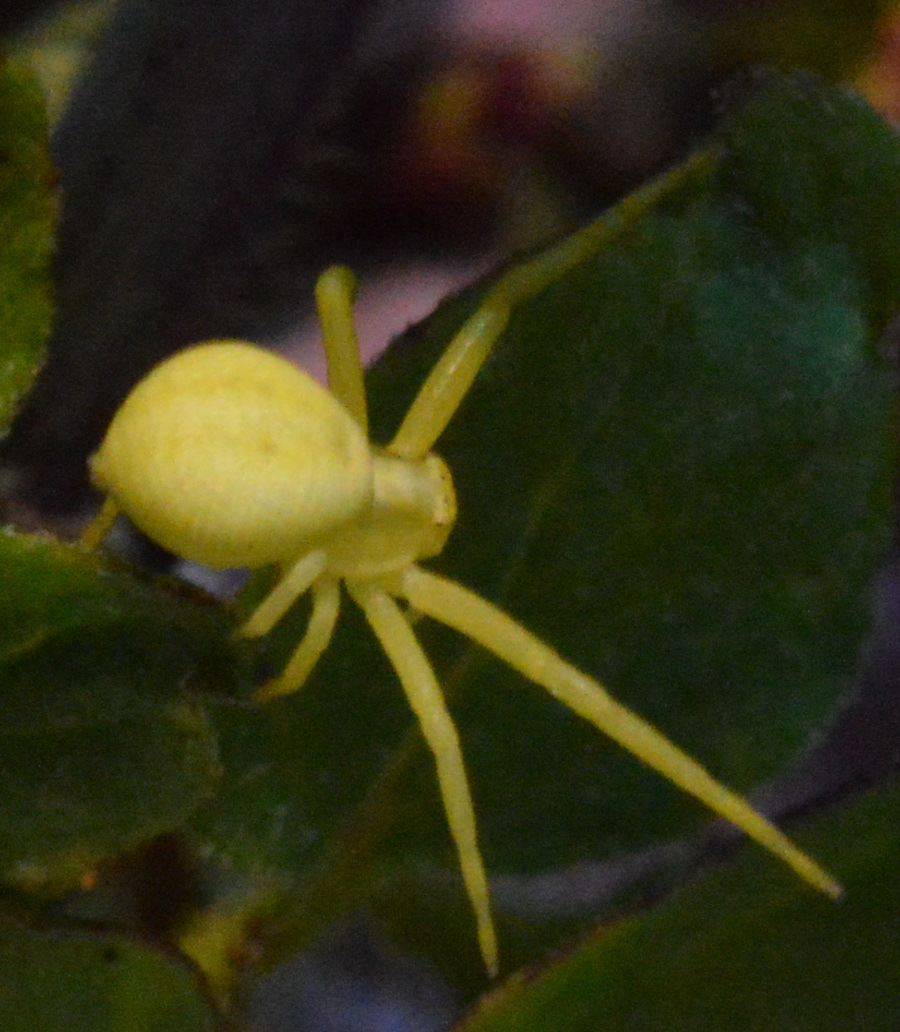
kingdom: Animalia
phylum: Arthropoda
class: Arachnida
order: Araneae
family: Thomisidae
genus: Misumena
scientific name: Misumena vatia
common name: Goldenrod crab spider
